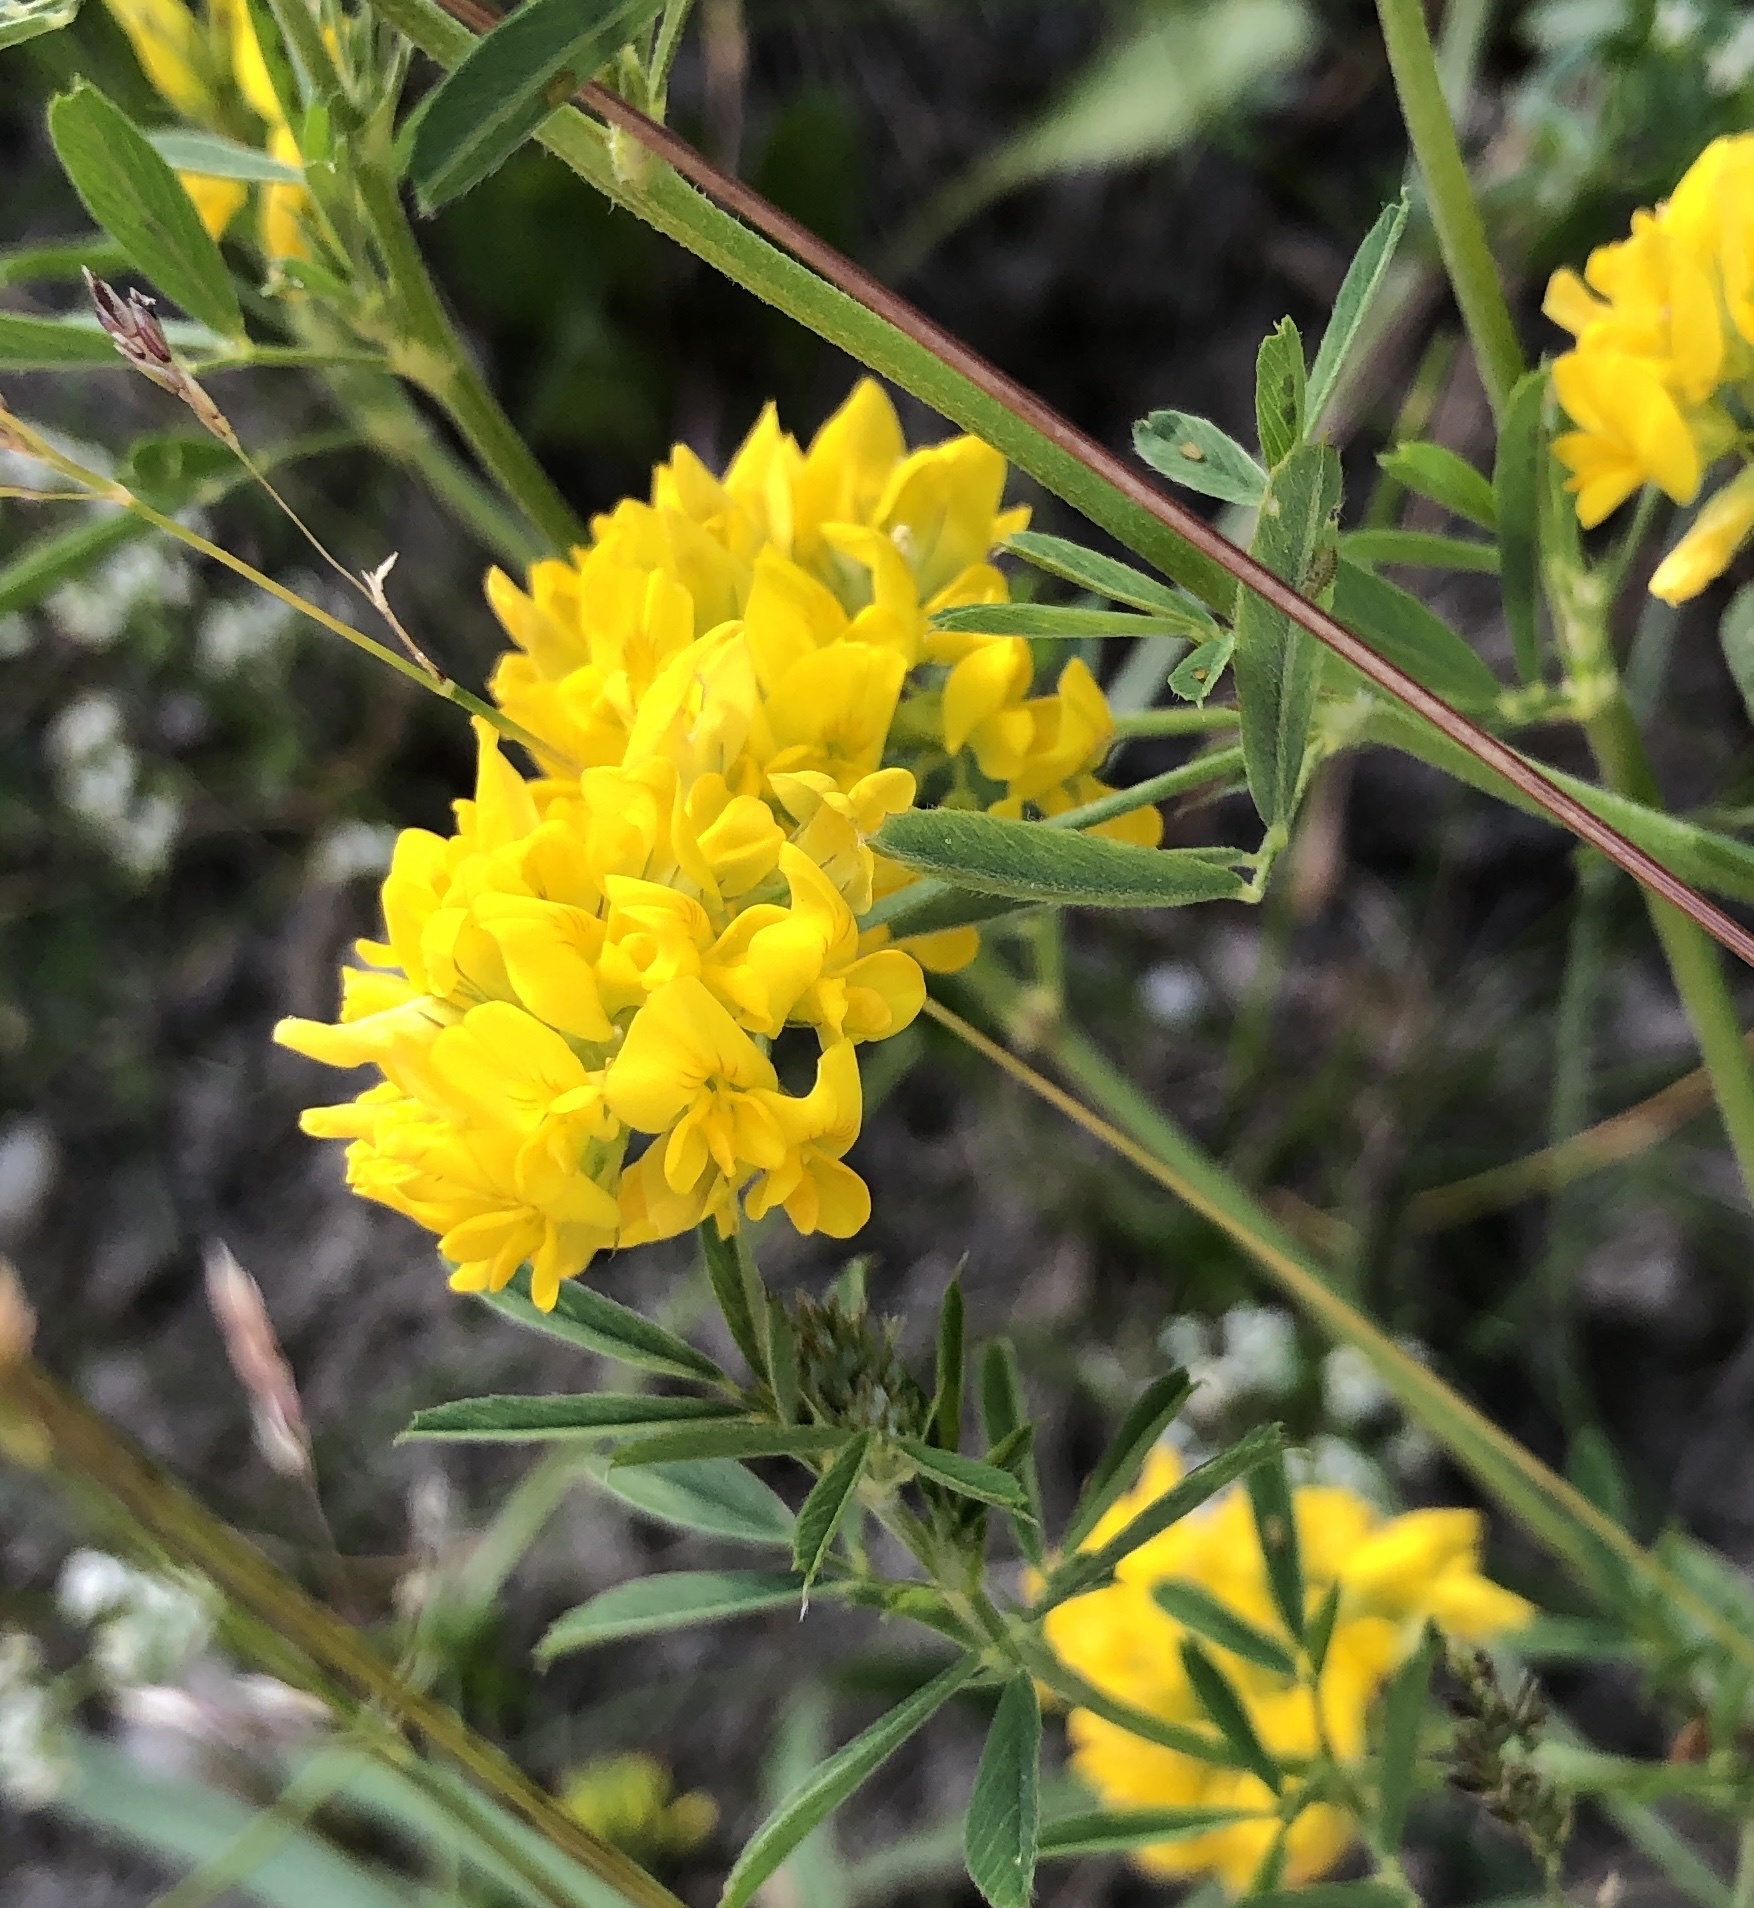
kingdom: Plantae
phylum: Tracheophyta
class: Magnoliopsida
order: Fabales
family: Fabaceae
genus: Medicago
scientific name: Medicago falcata
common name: Sickle medick
